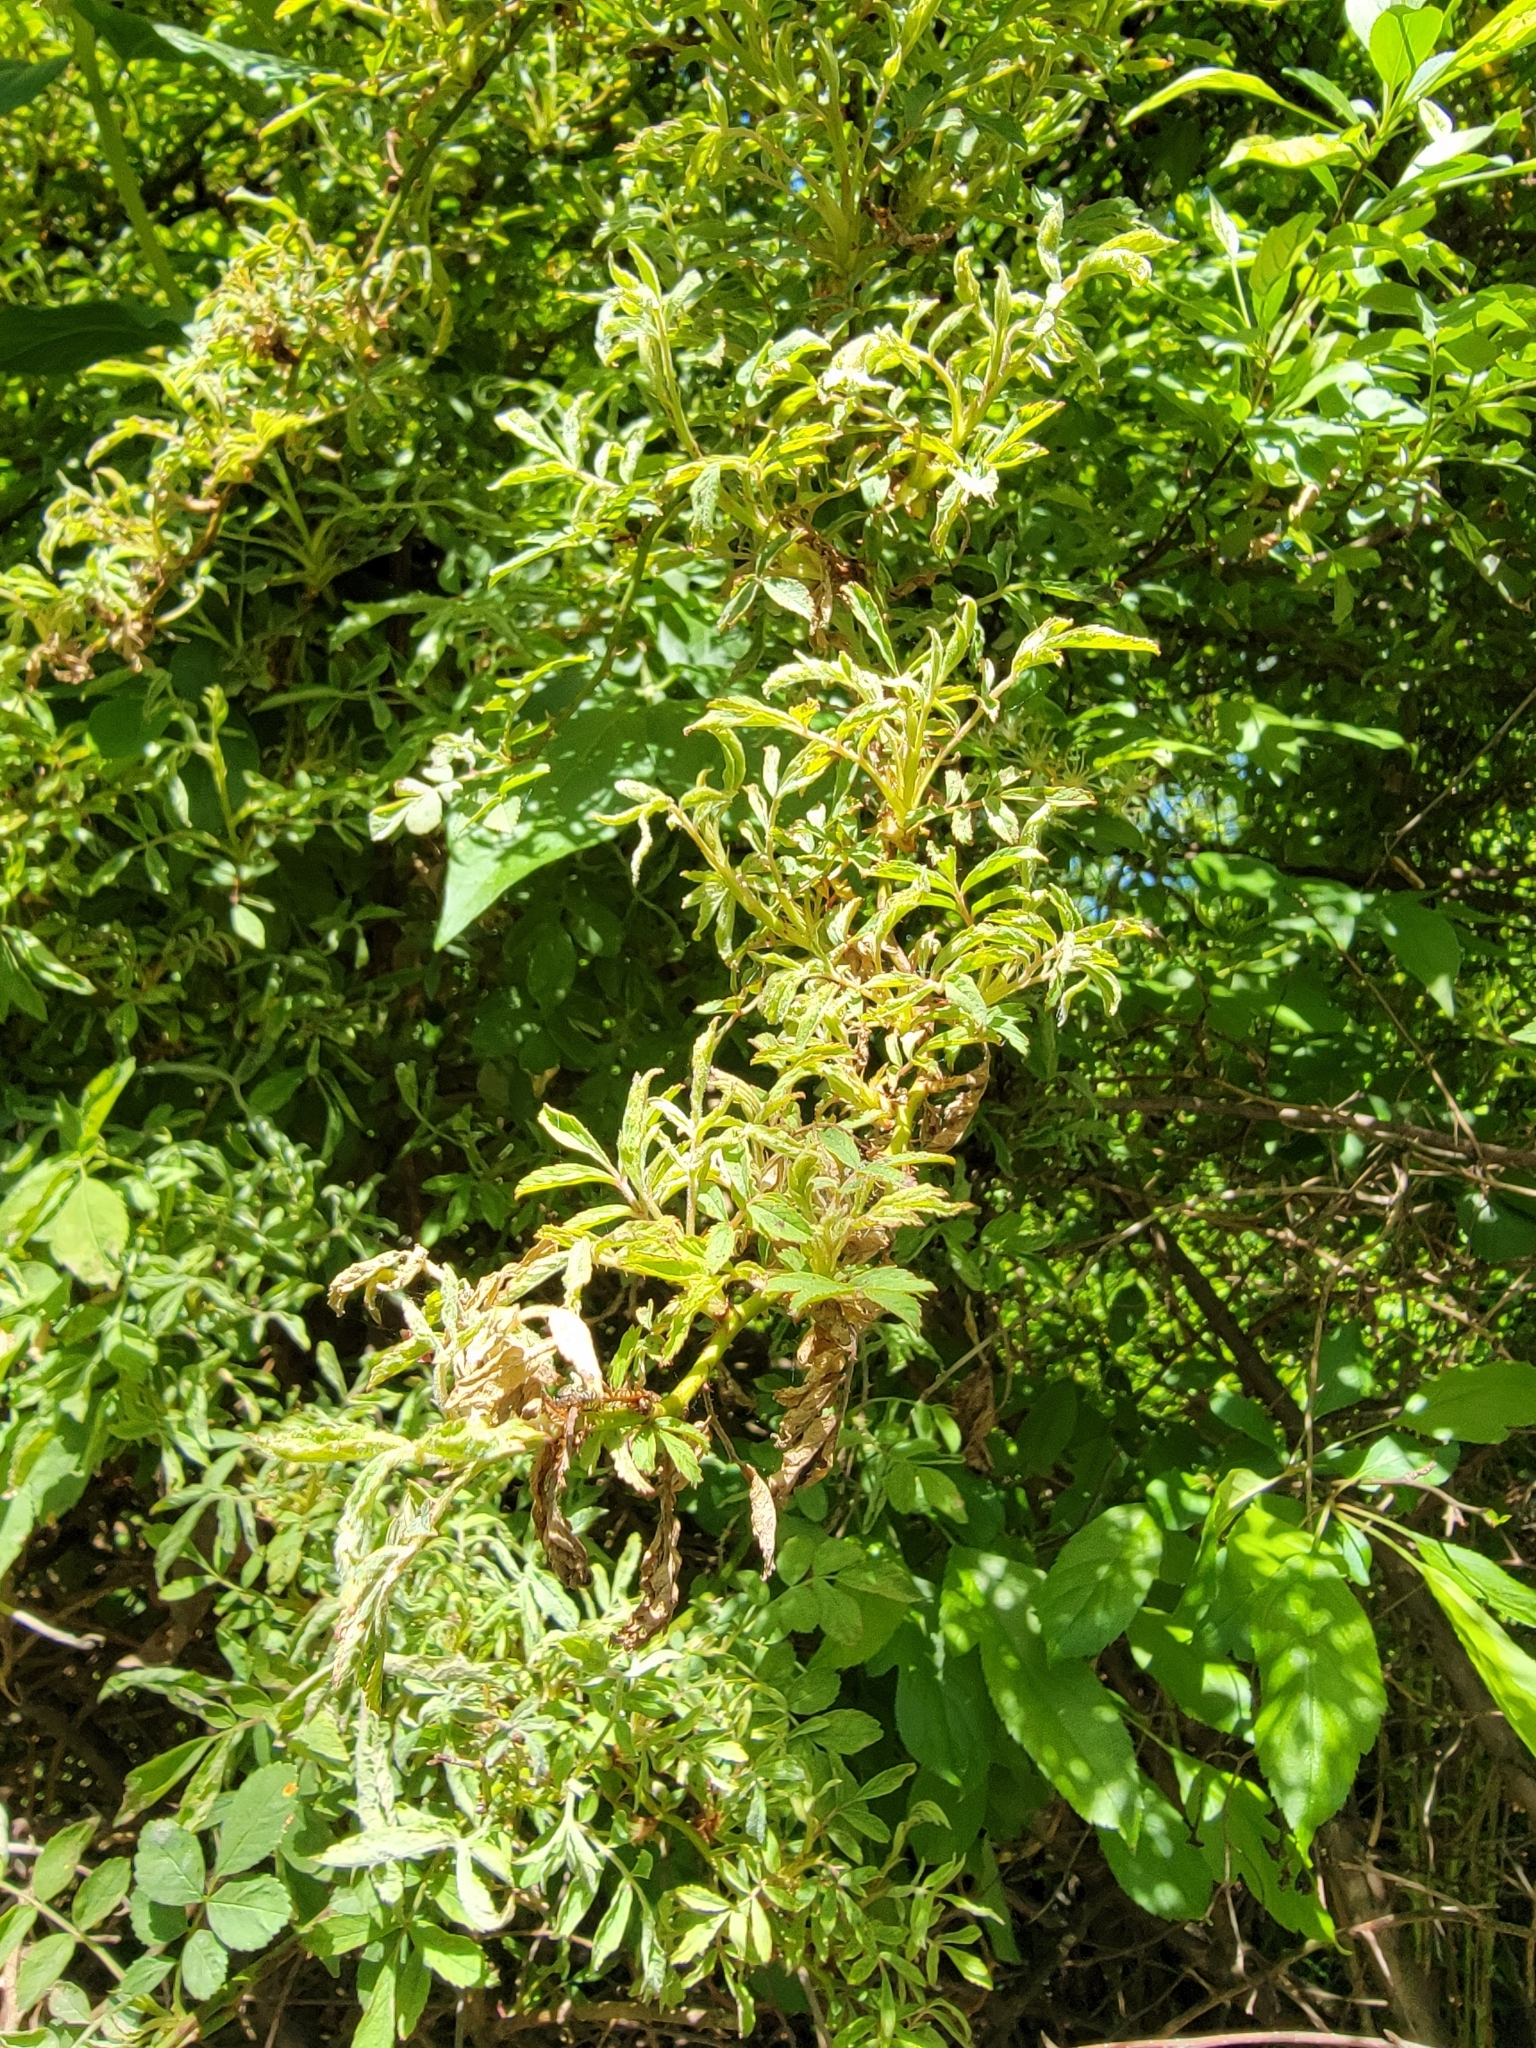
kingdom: Viruses
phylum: Negarnaviricota
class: Ellioviricetes
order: Bunyavirales
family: Fimoviridae
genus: Emaravirus
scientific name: Emaravirus rosae
